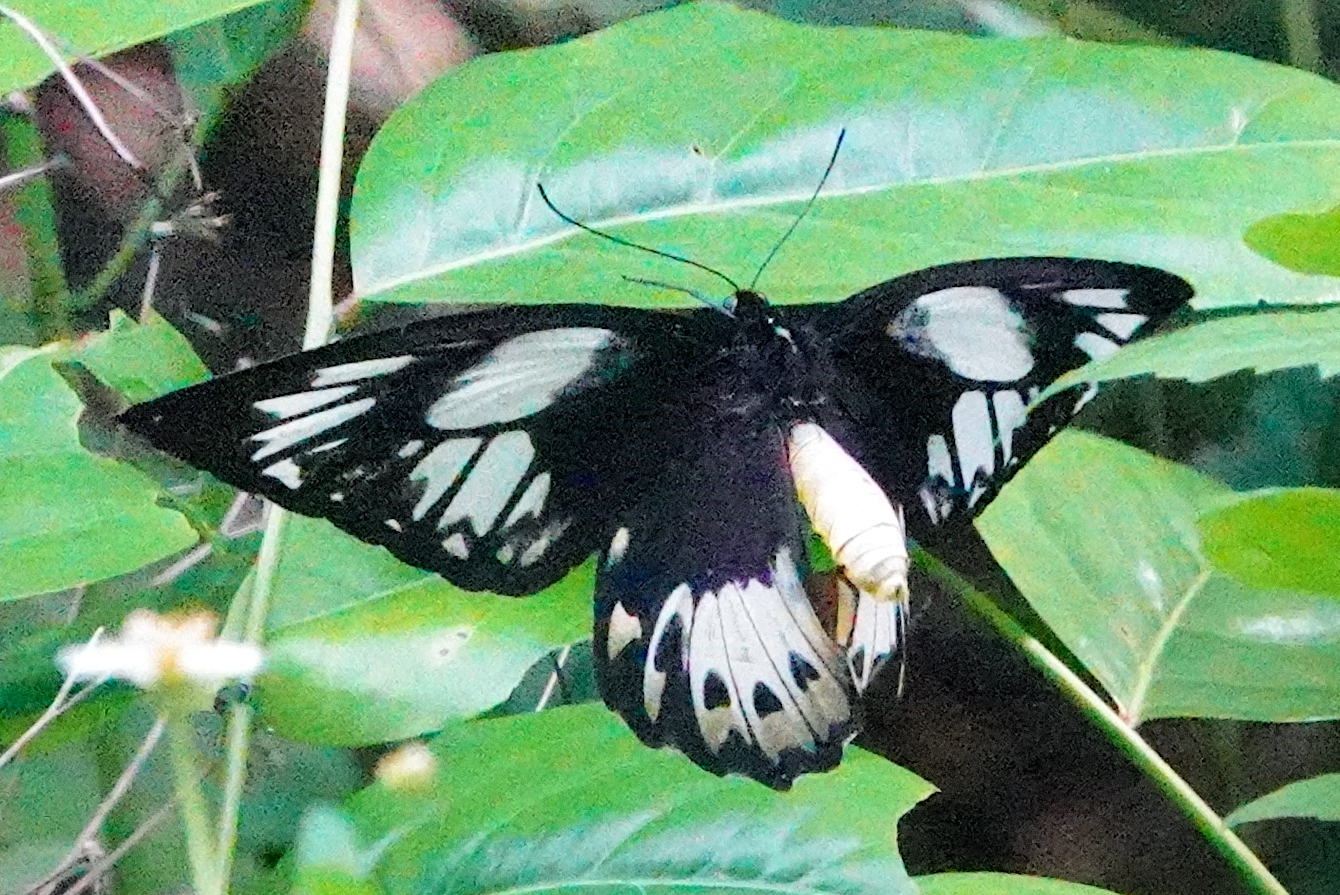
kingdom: Animalia
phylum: Arthropoda
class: Insecta
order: Lepidoptera
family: Papilionidae
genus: Ornithoptera
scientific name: Ornithoptera priamus
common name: Cape york birdwing
